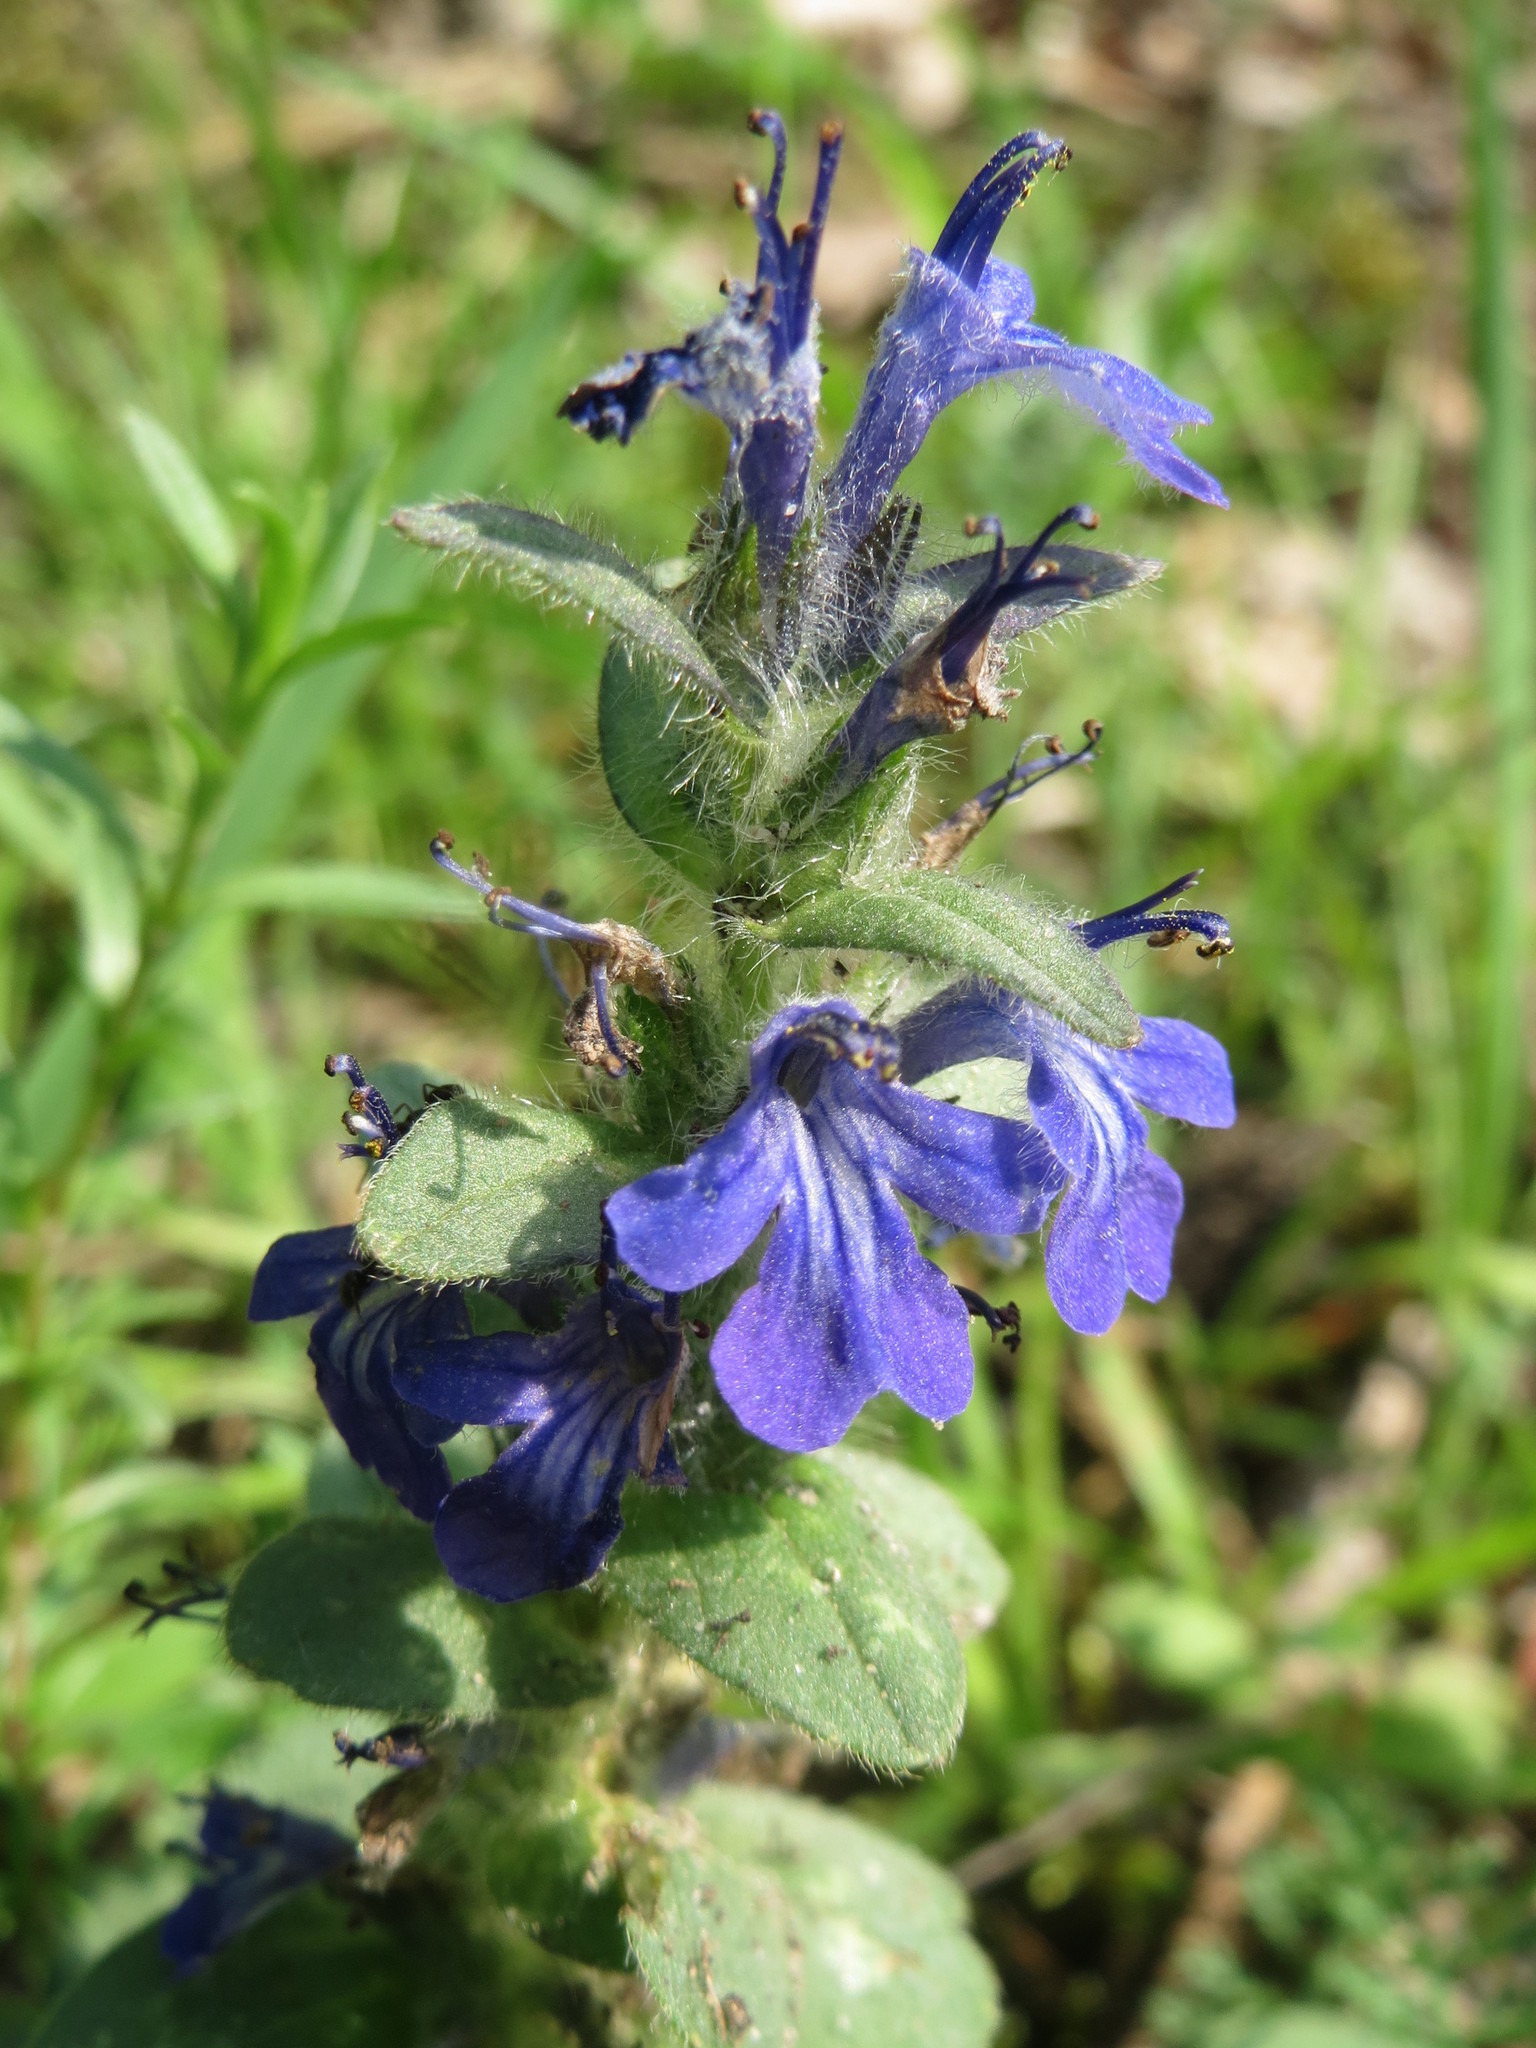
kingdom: Plantae
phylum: Tracheophyta
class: Magnoliopsida
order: Lamiales
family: Lamiaceae
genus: Ajuga
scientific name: Ajuga reptans
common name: Bugle
